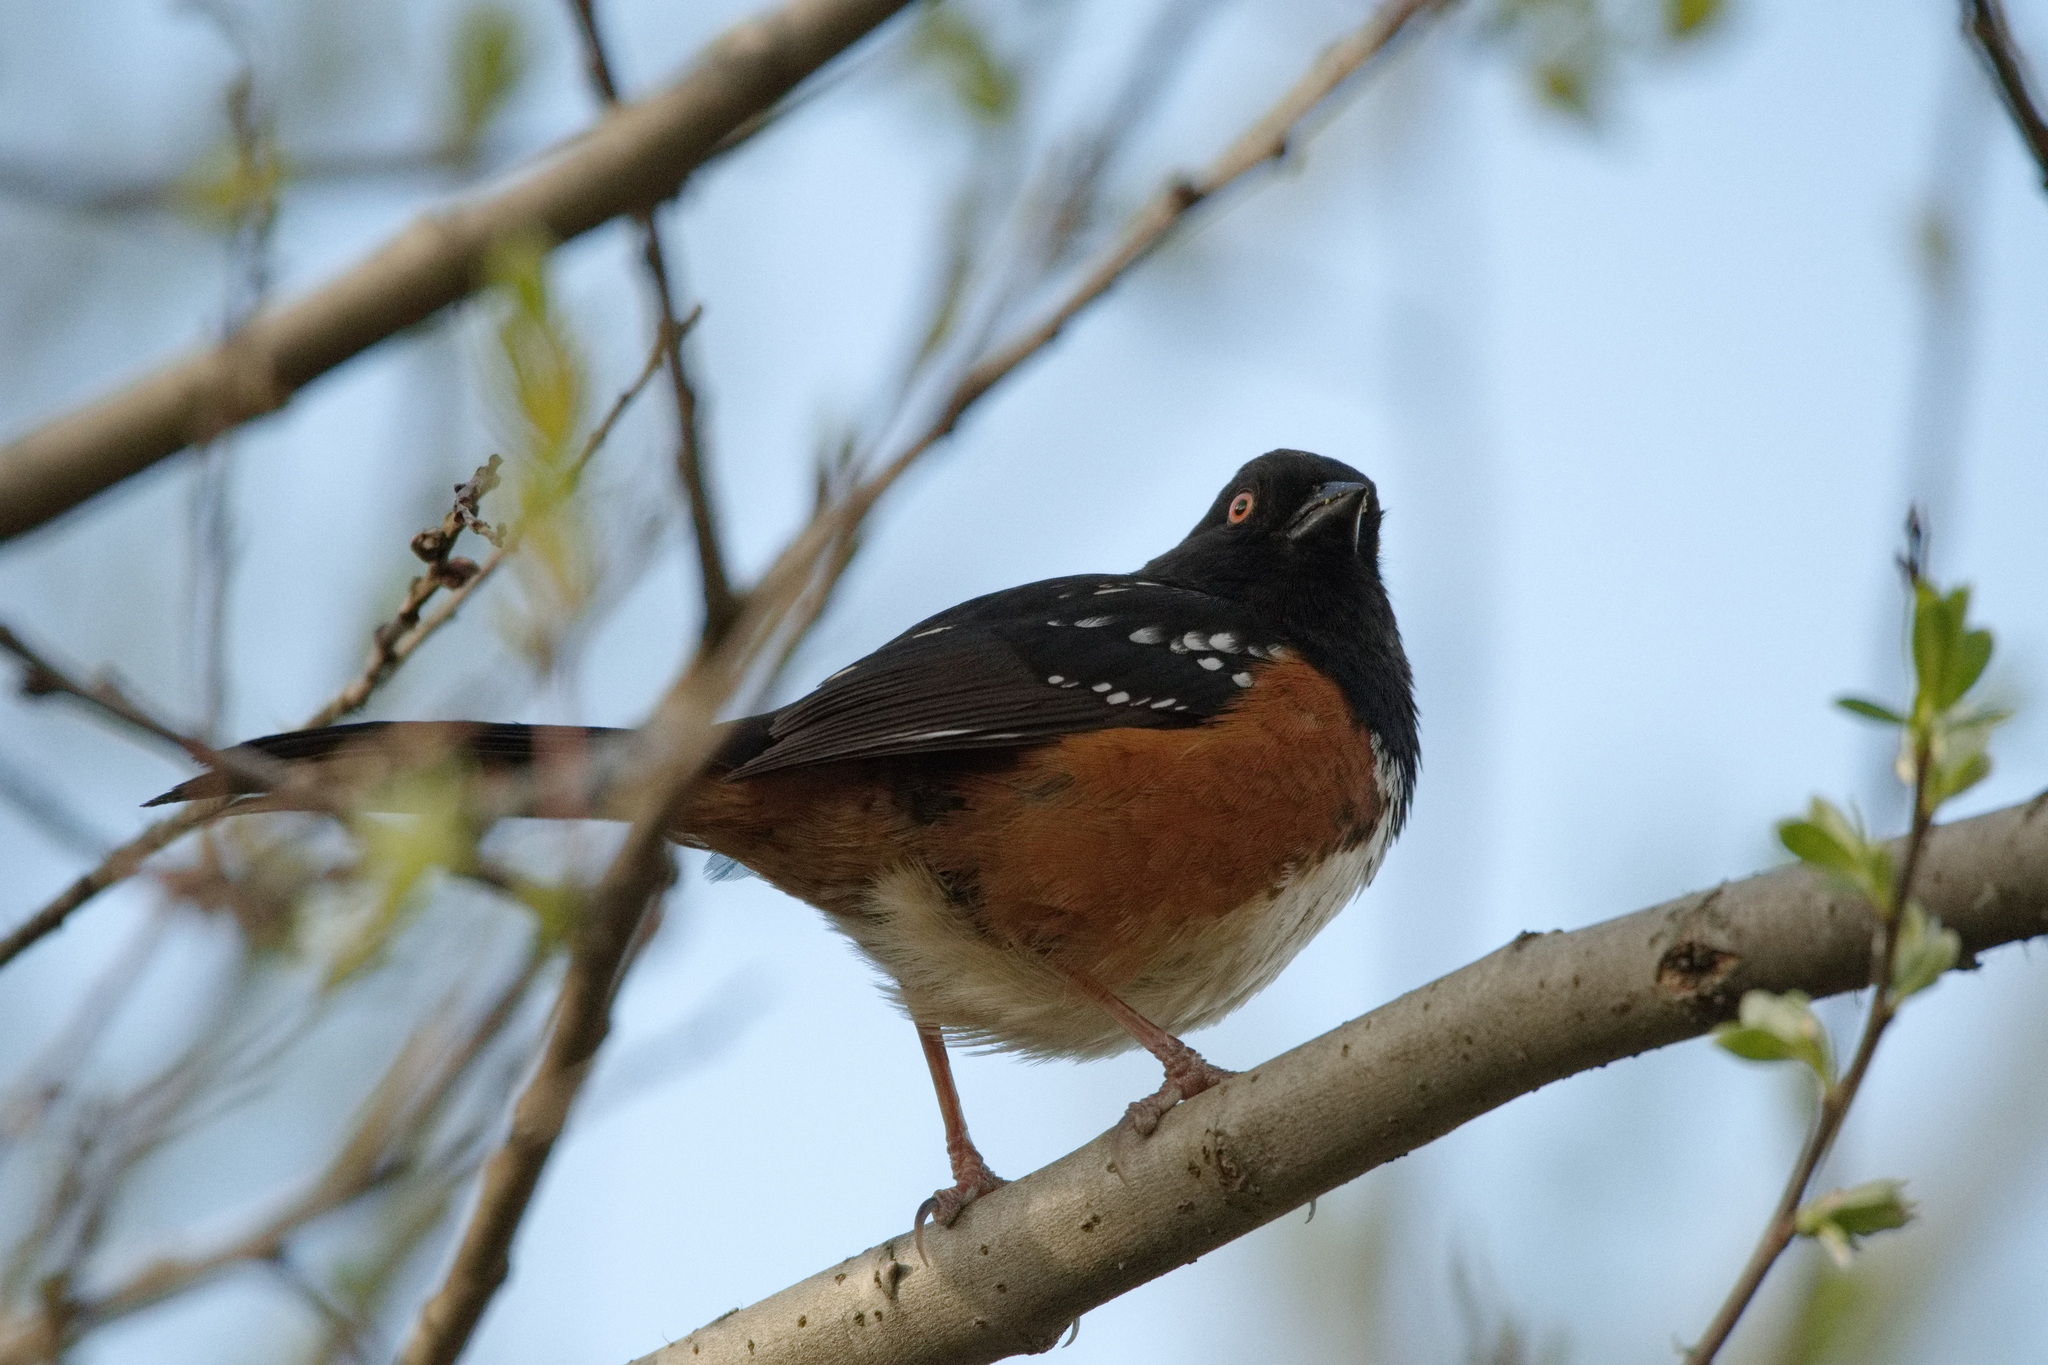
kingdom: Animalia
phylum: Chordata
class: Aves
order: Passeriformes
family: Passerellidae
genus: Pipilo
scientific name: Pipilo maculatus
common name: Spotted towhee
